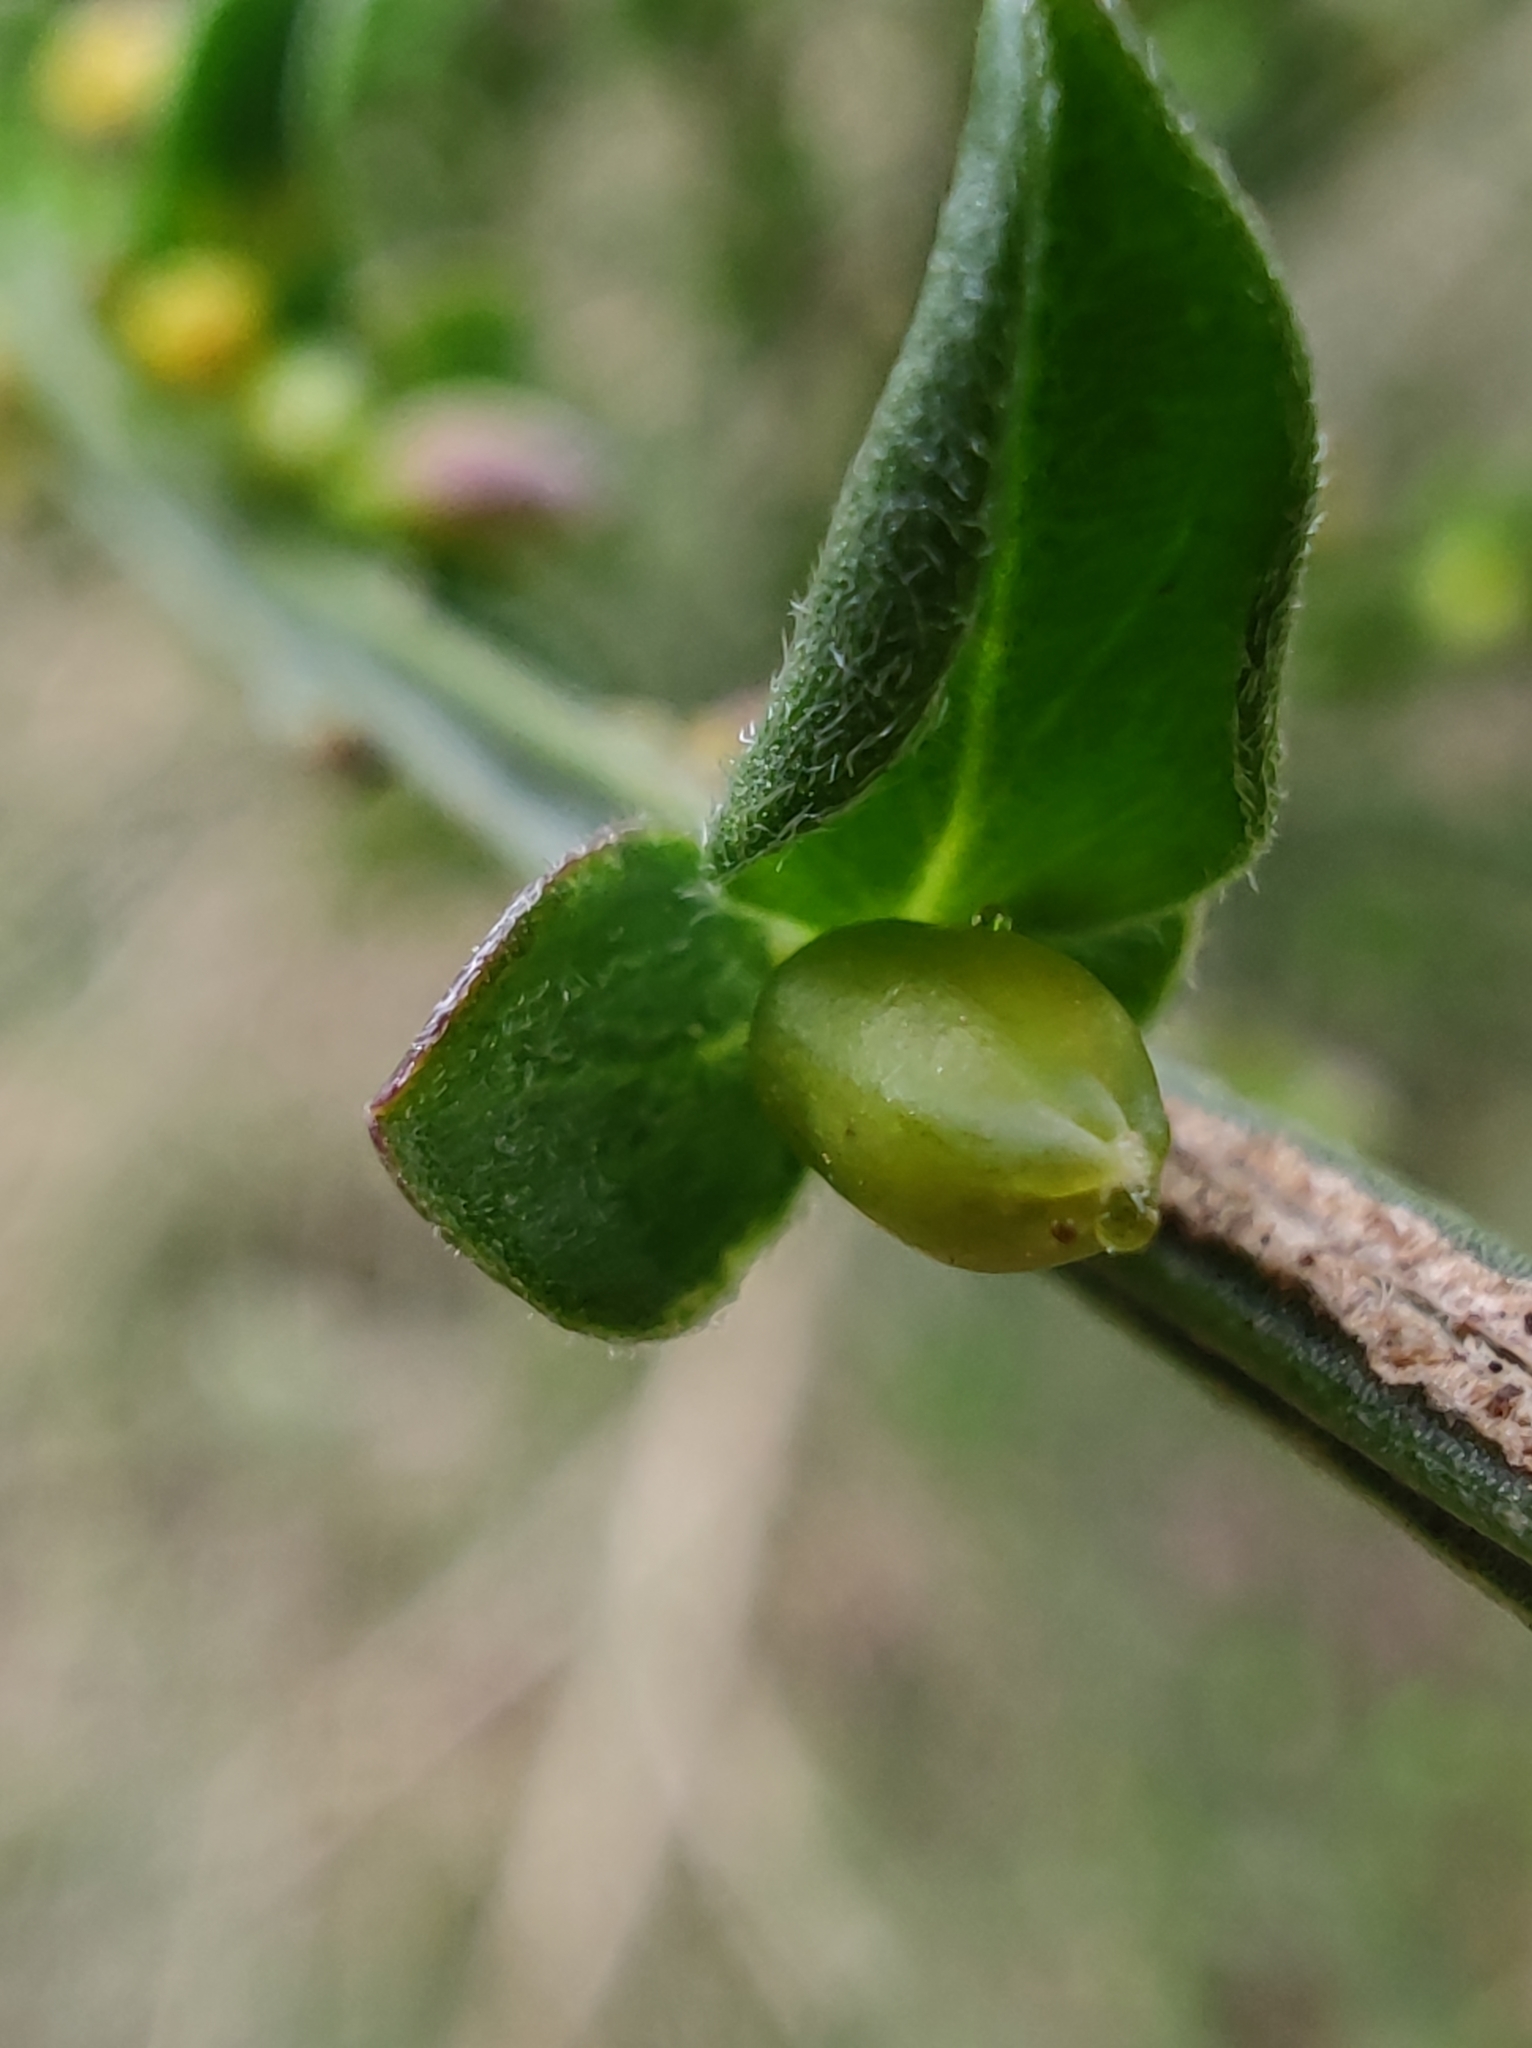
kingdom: Plantae
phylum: Tracheophyta
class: Magnoliopsida
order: Fabales
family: Fabaceae
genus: Cytisus
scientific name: Cytisus scoparius
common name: Scotch broom
